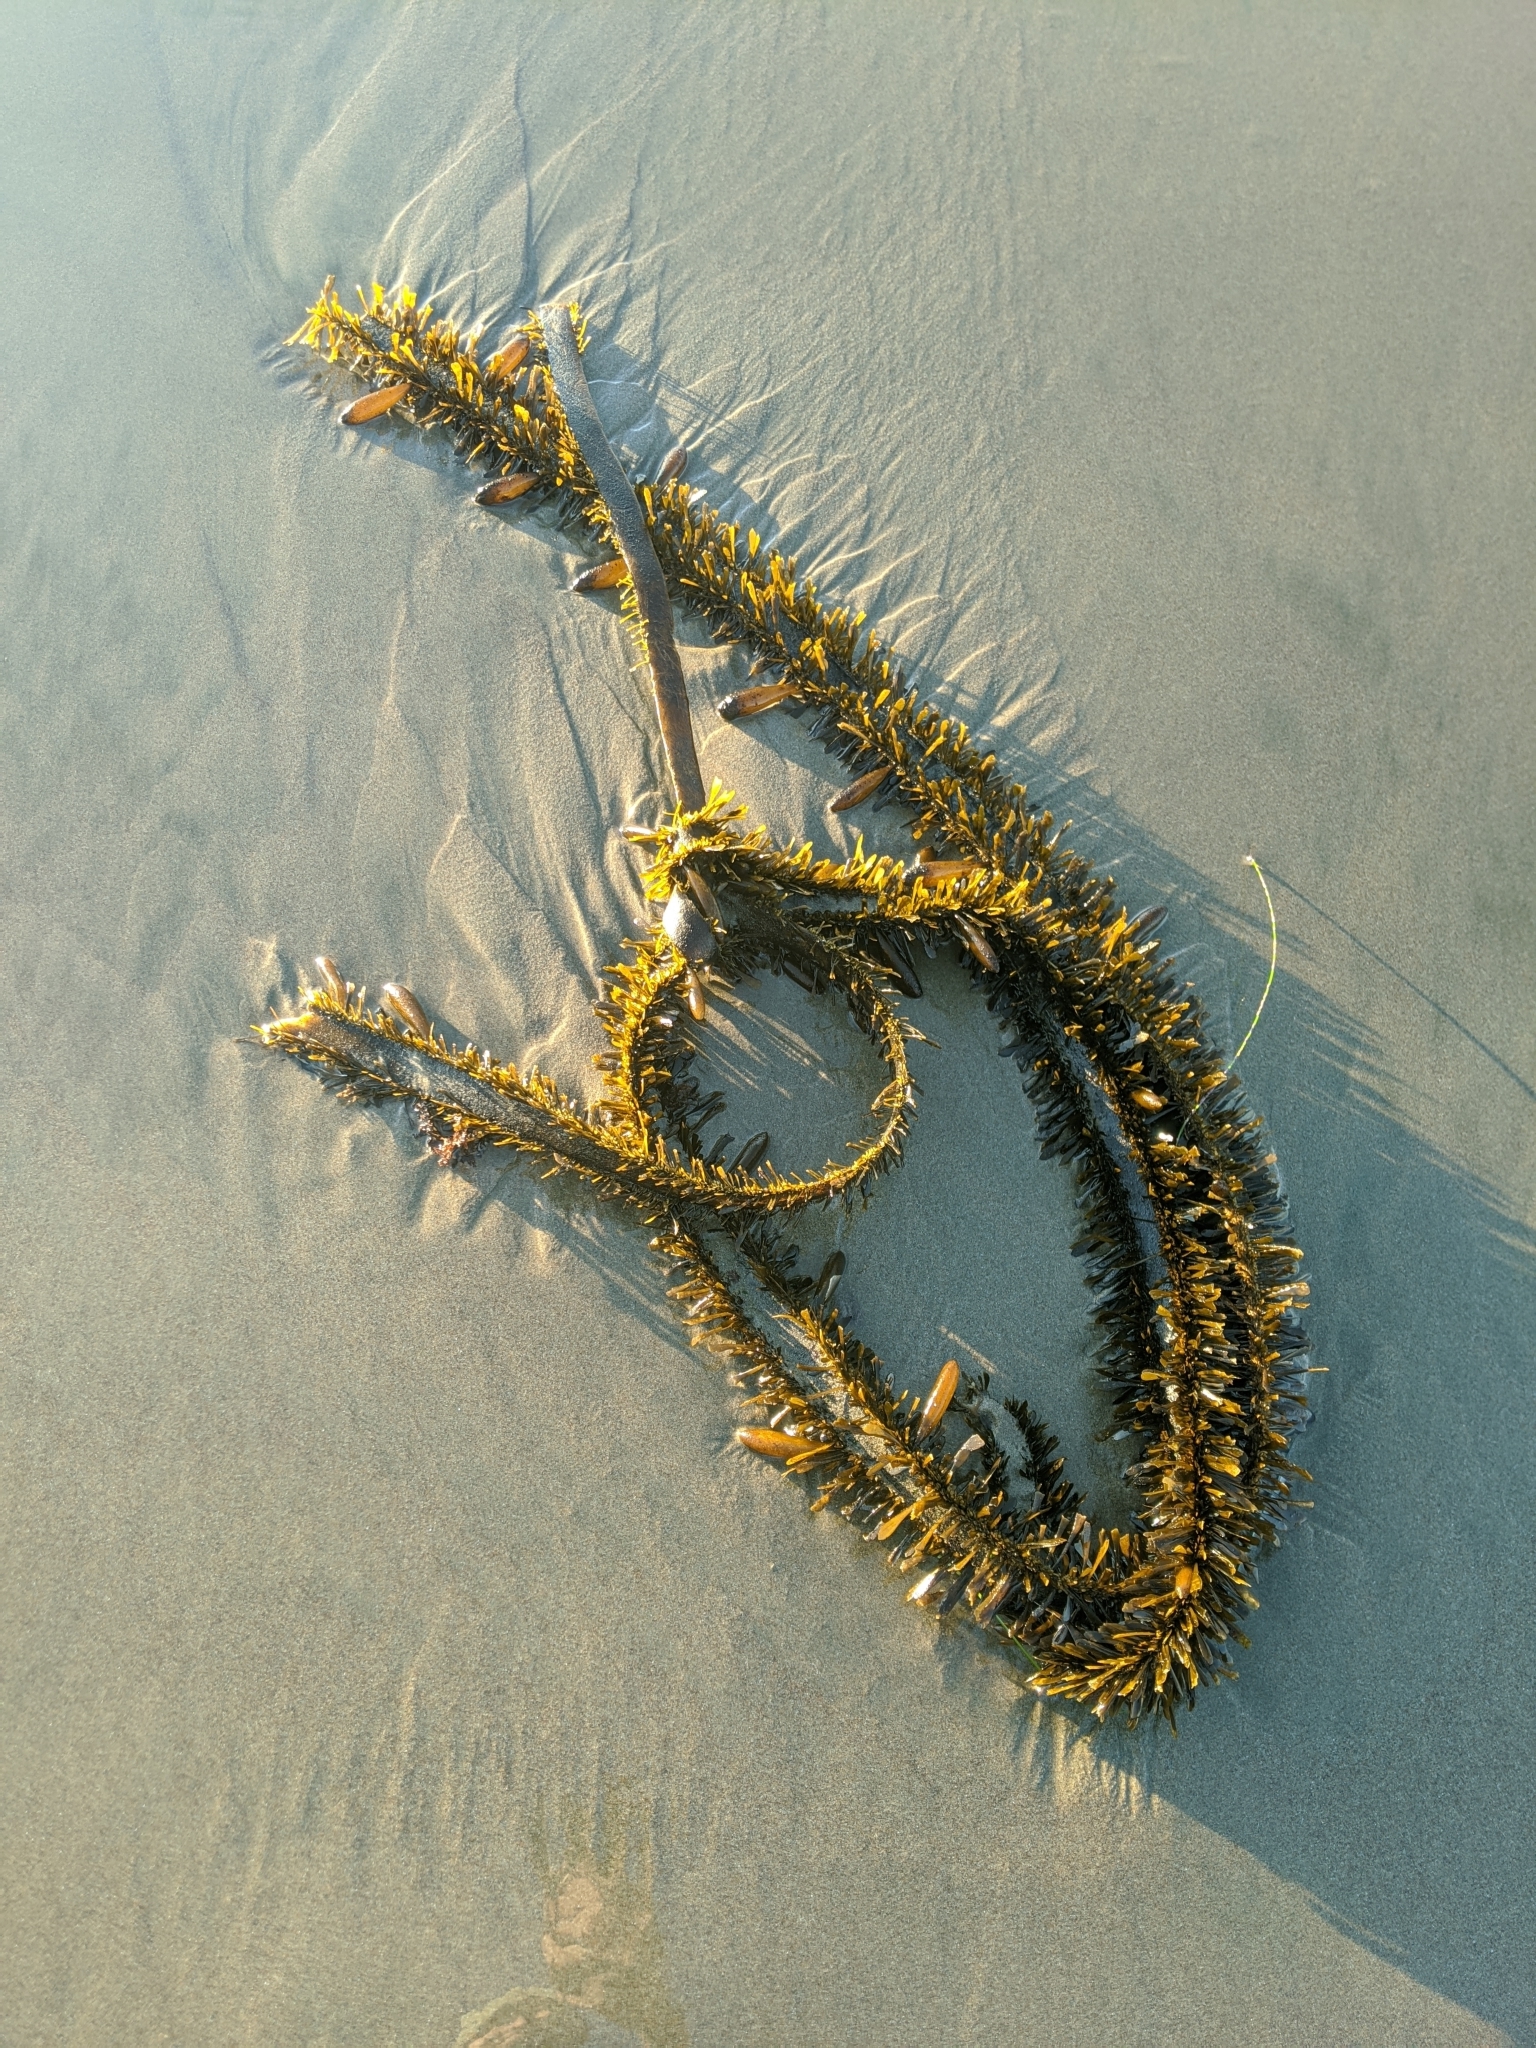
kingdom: Chromista
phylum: Ochrophyta
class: Phaeophyceae
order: Laminariales
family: Lessoniaceae
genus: Egregia
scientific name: Egregia menziesii
